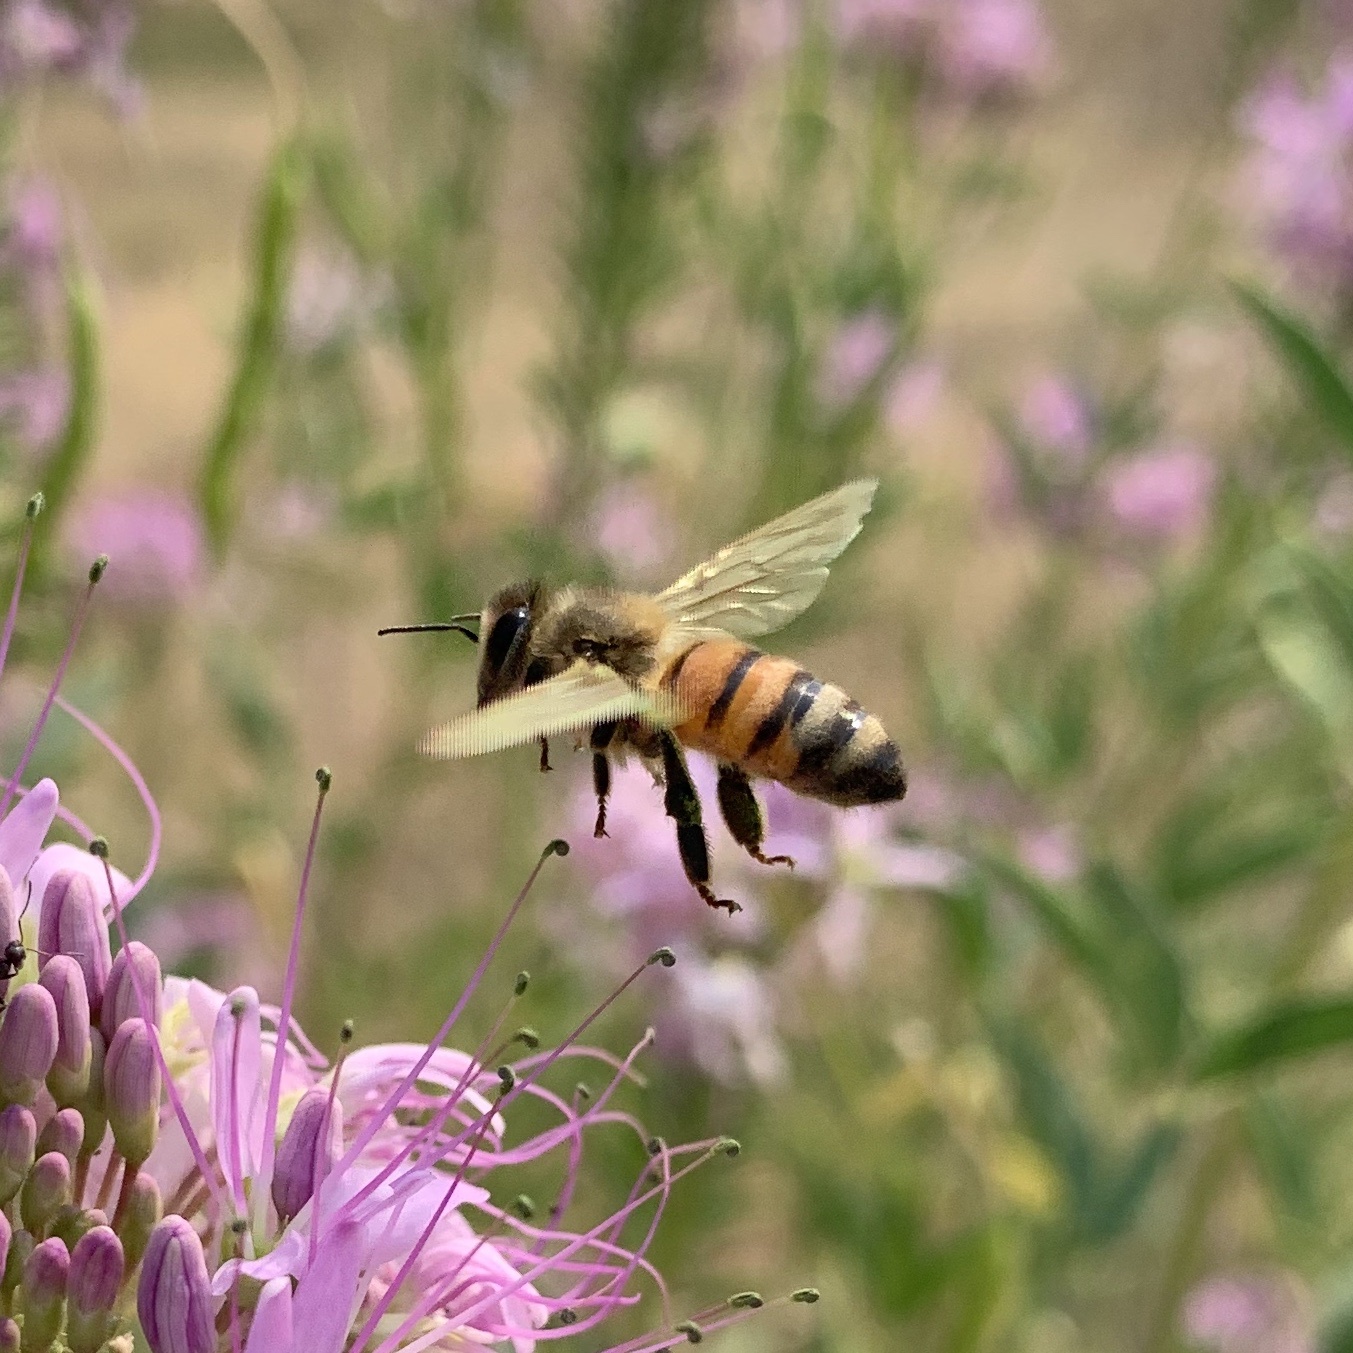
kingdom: Animalia
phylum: Arthropoda
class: Insecta
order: Hymenoptera
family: Apidae
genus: Apis
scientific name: Apis mellifera
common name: Honey bee
